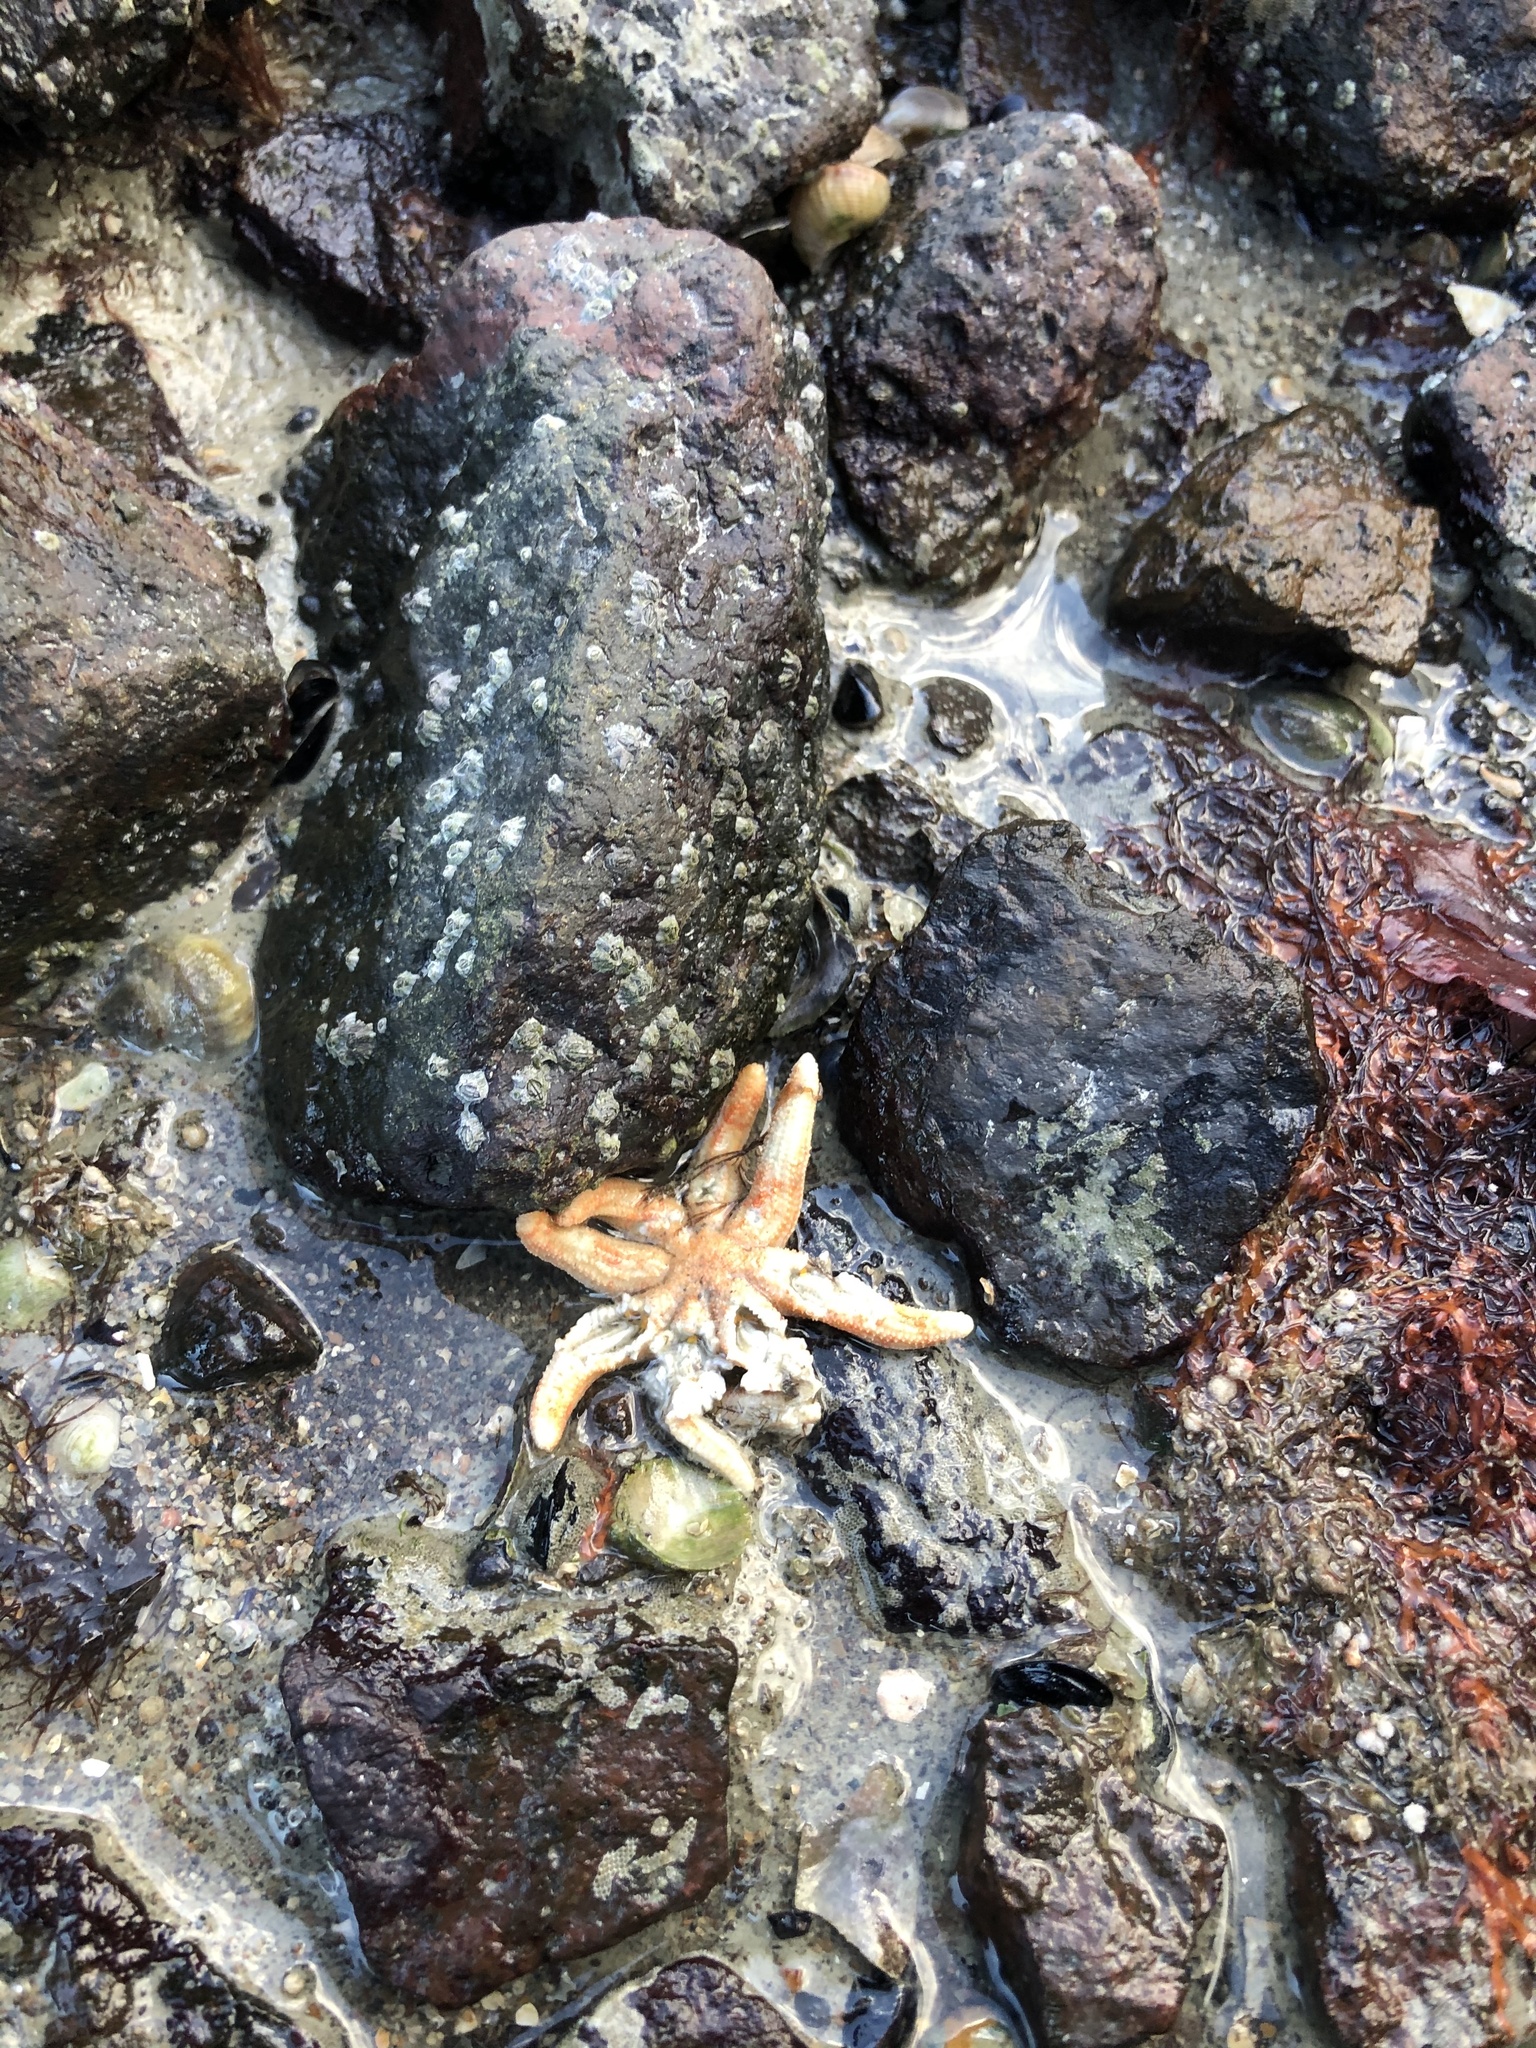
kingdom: Animalia
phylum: Echinodermata
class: Asteroidea
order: Forcipulatida
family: Stichasteridae
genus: Allostichaster
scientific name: Allostichaster polyplax
